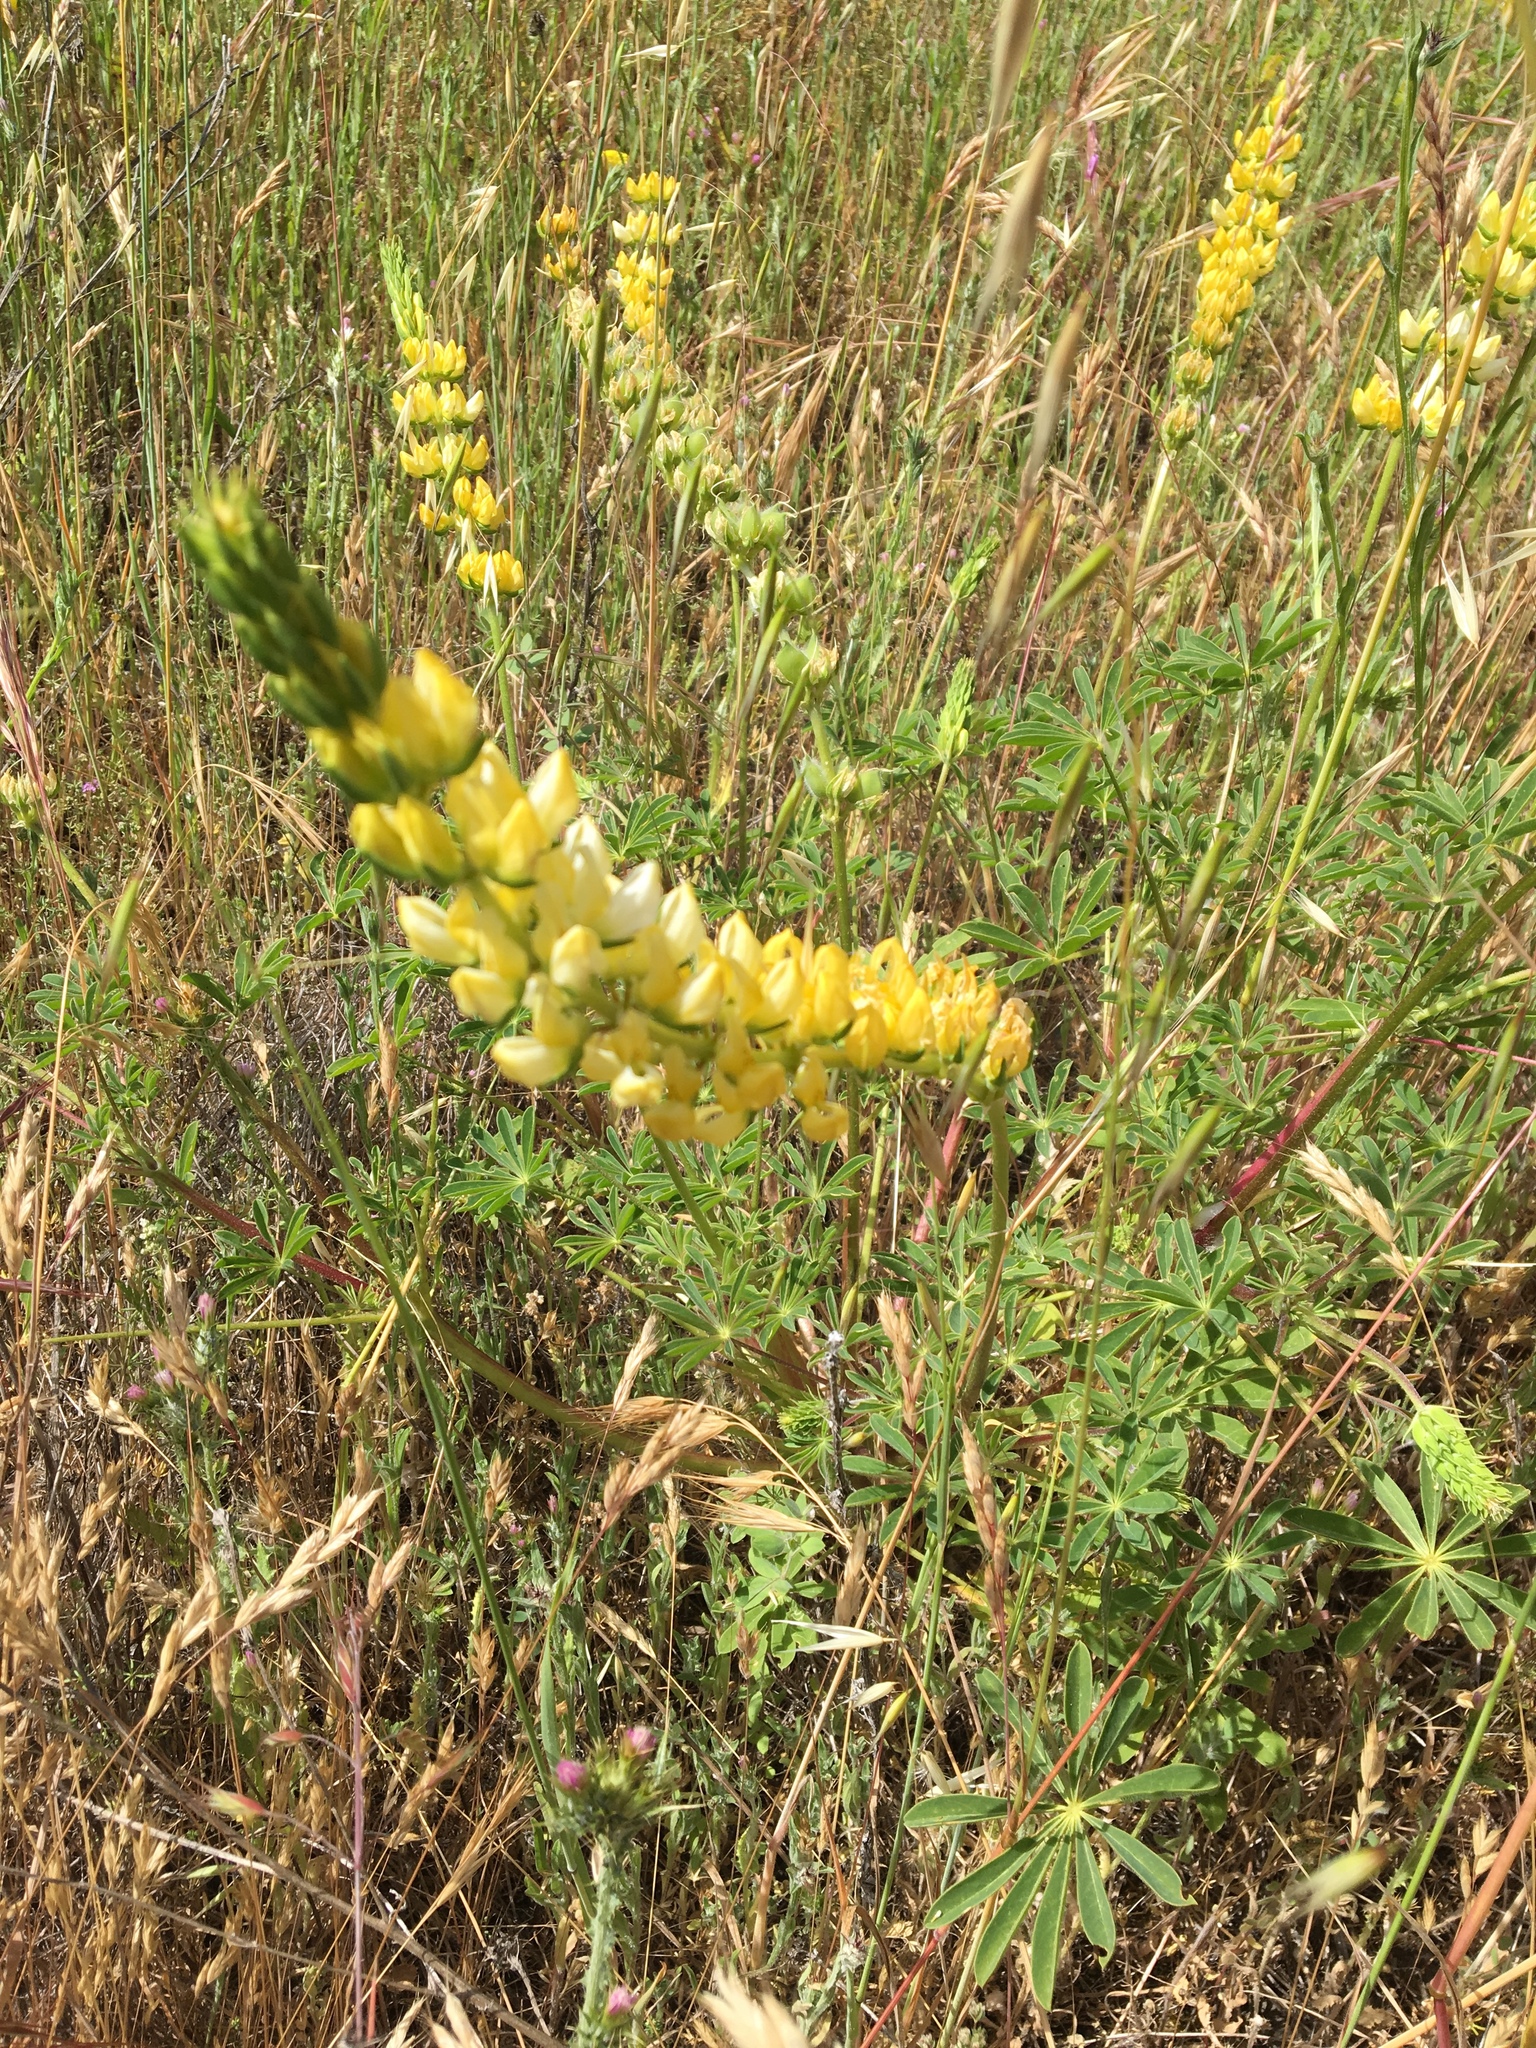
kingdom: Plantae
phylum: Tracheophyta
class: Magnoliopsida
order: Fabales
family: Fabaceae
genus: Lupinus
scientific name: Lupinus microcarpus
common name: Chick lupine
